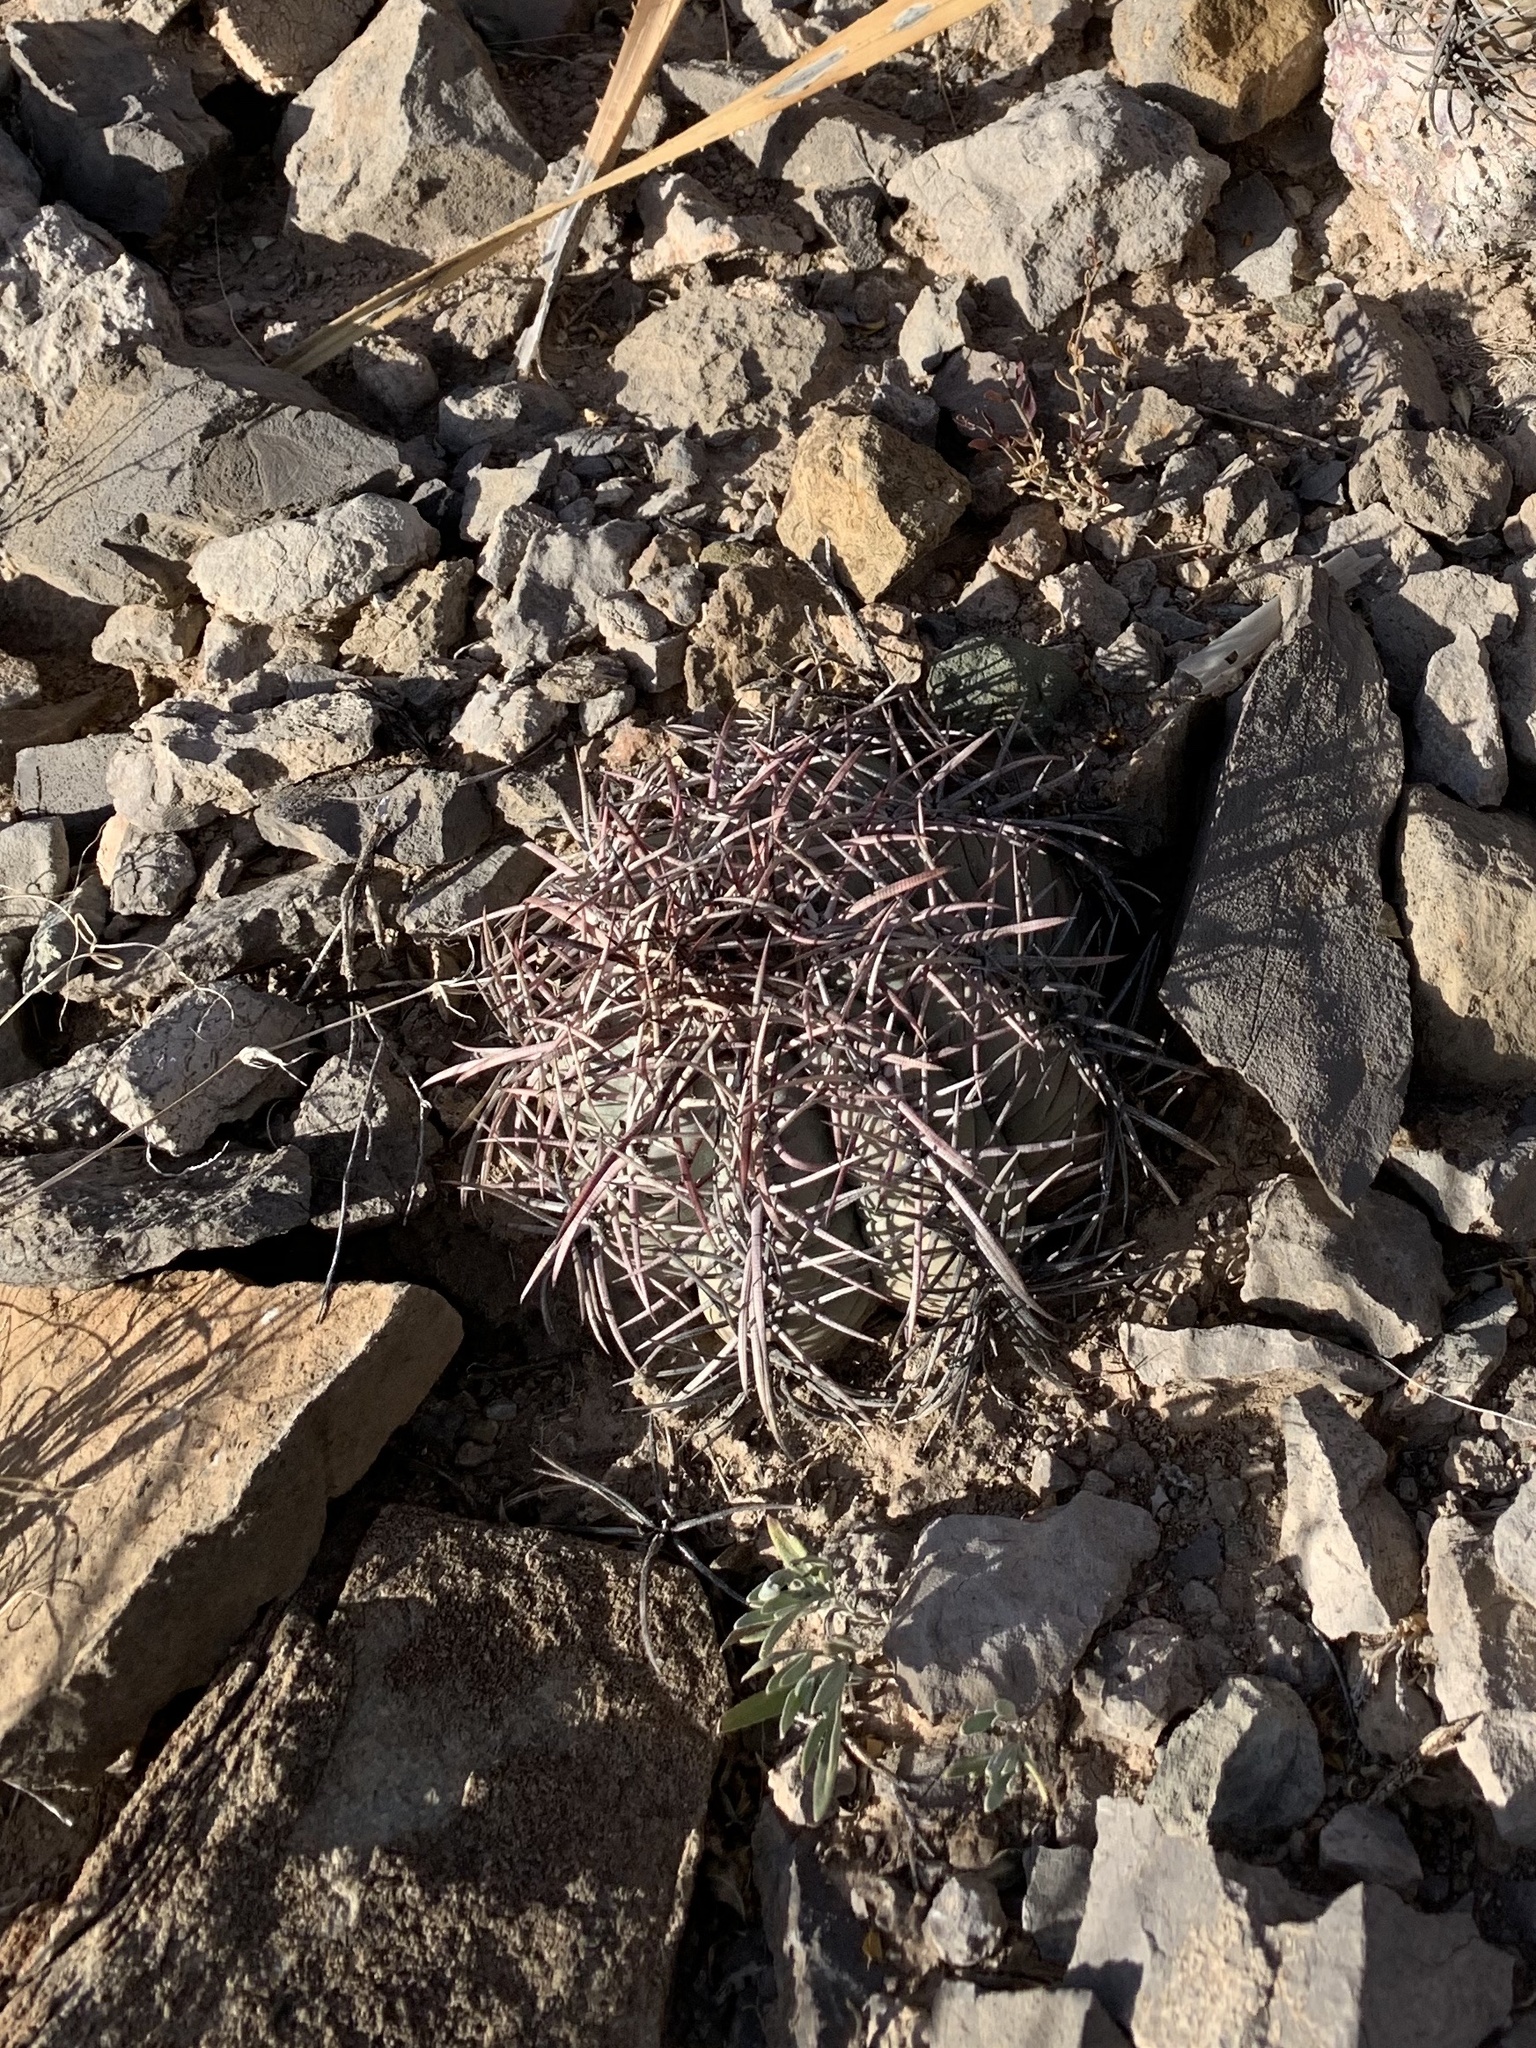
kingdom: Plantae
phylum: Tracheophyta
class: Magnoliopsida
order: Caryophyllales
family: Cactaceae
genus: Echinocactus
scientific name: Echinocactus horizonthalonius
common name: Devilshead
